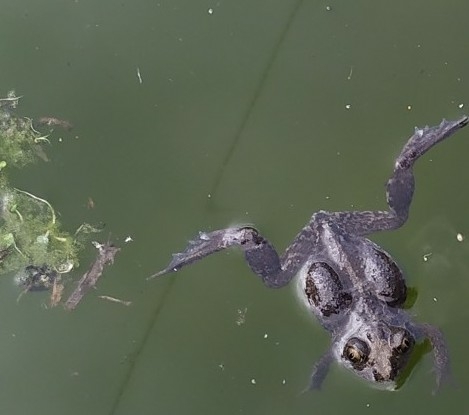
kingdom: Animalia
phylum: Chordata
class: Amphibia
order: Anura
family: Pelobatidae
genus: Pelobates
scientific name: Pelobates vespertinus
